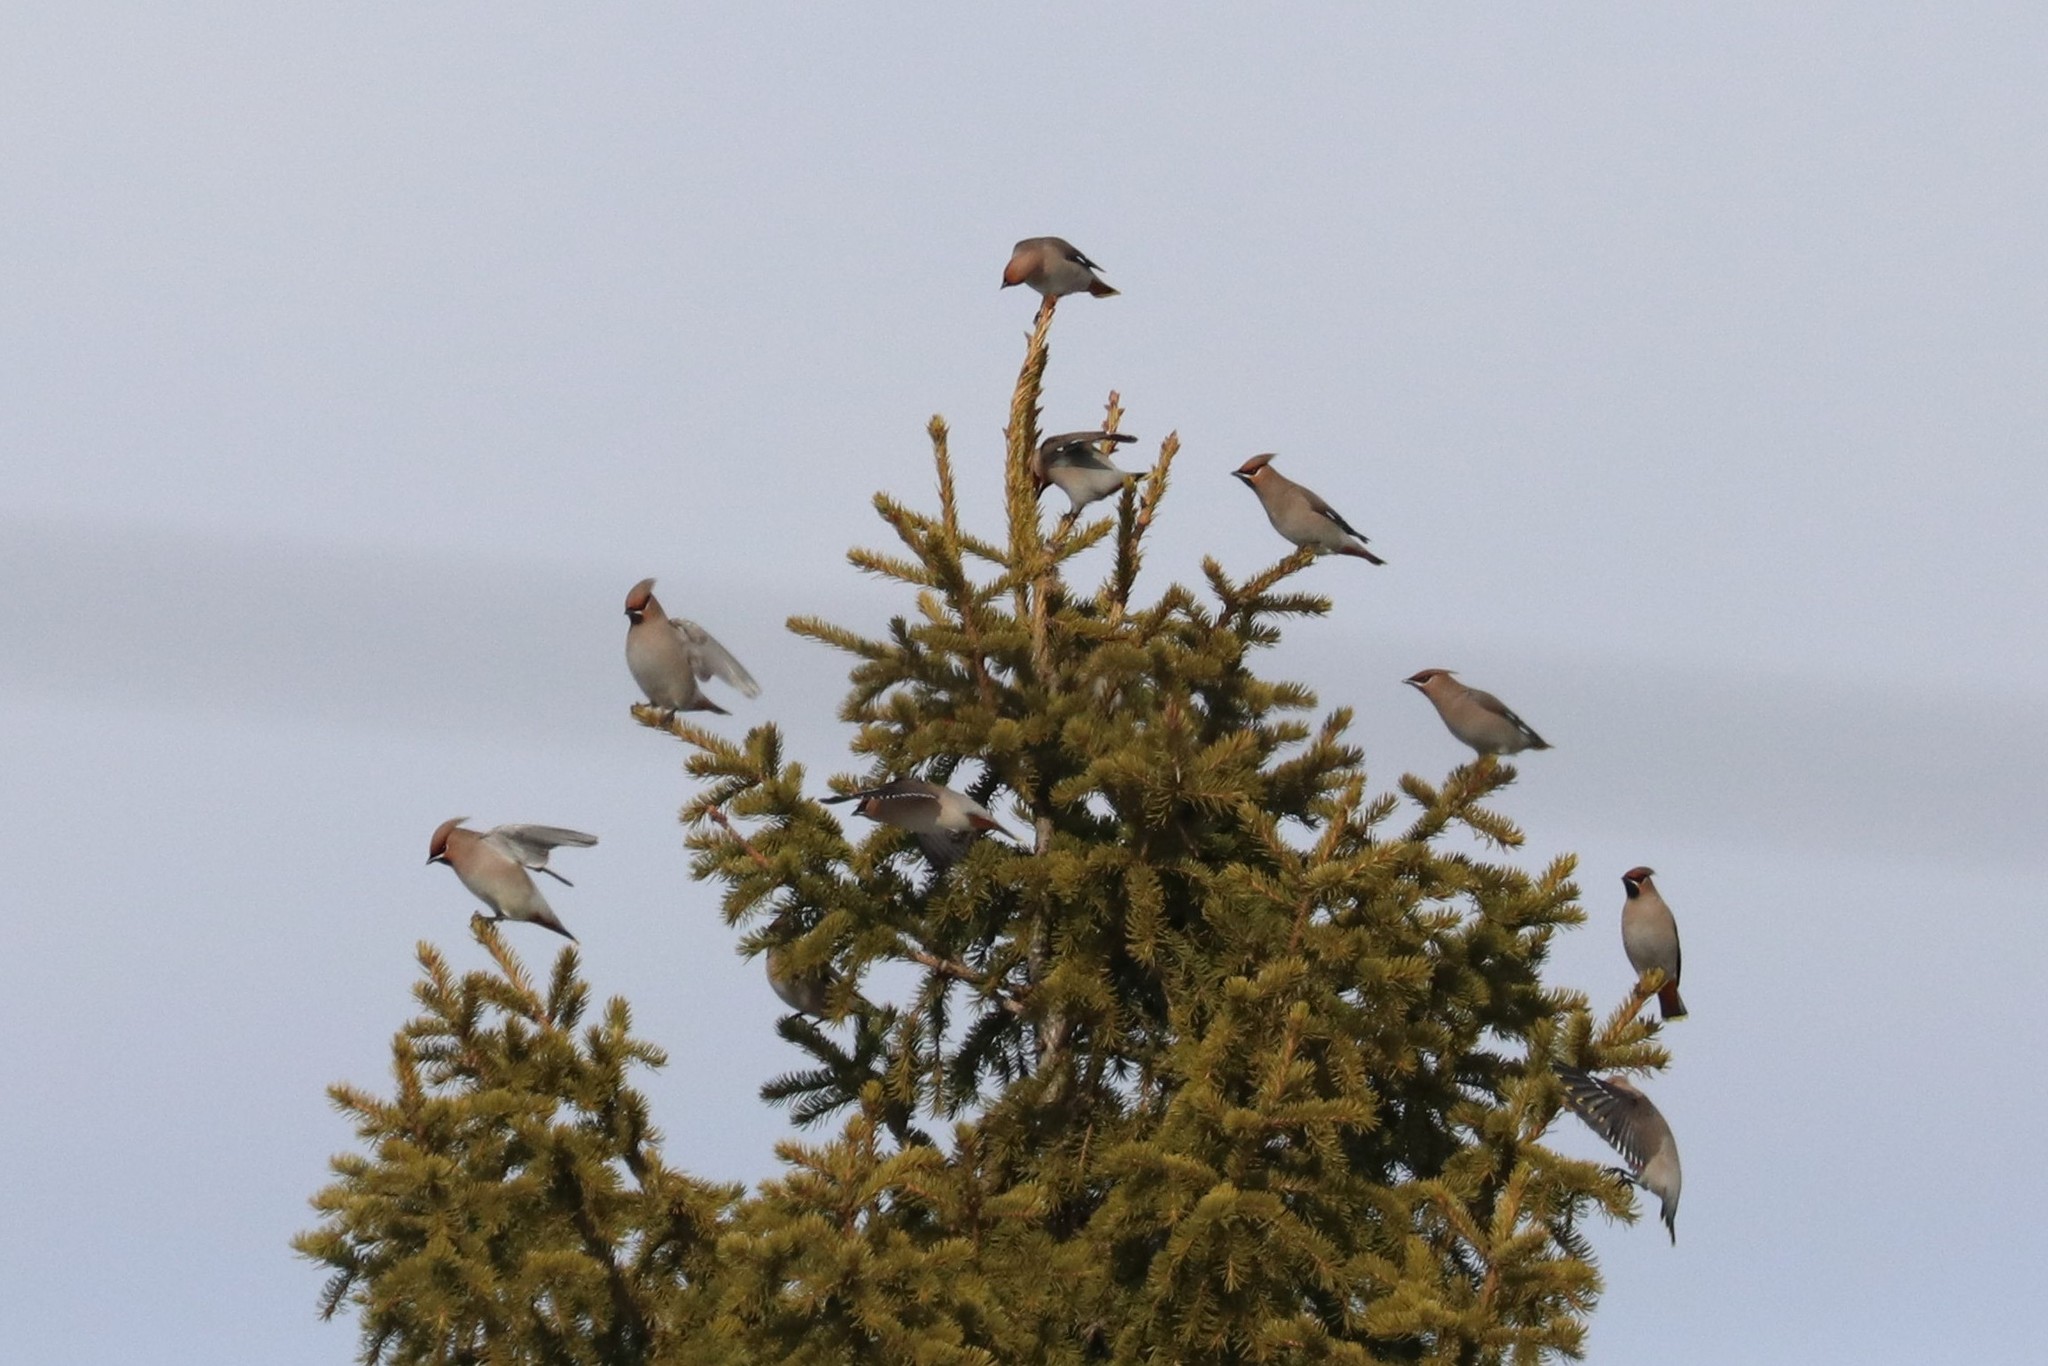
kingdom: Animalia
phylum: Chordata
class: Aves
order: Passeriformes
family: Bombycillidae
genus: Bombycilla
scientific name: Bombycilla garrulus
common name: Bohemian waxwing
